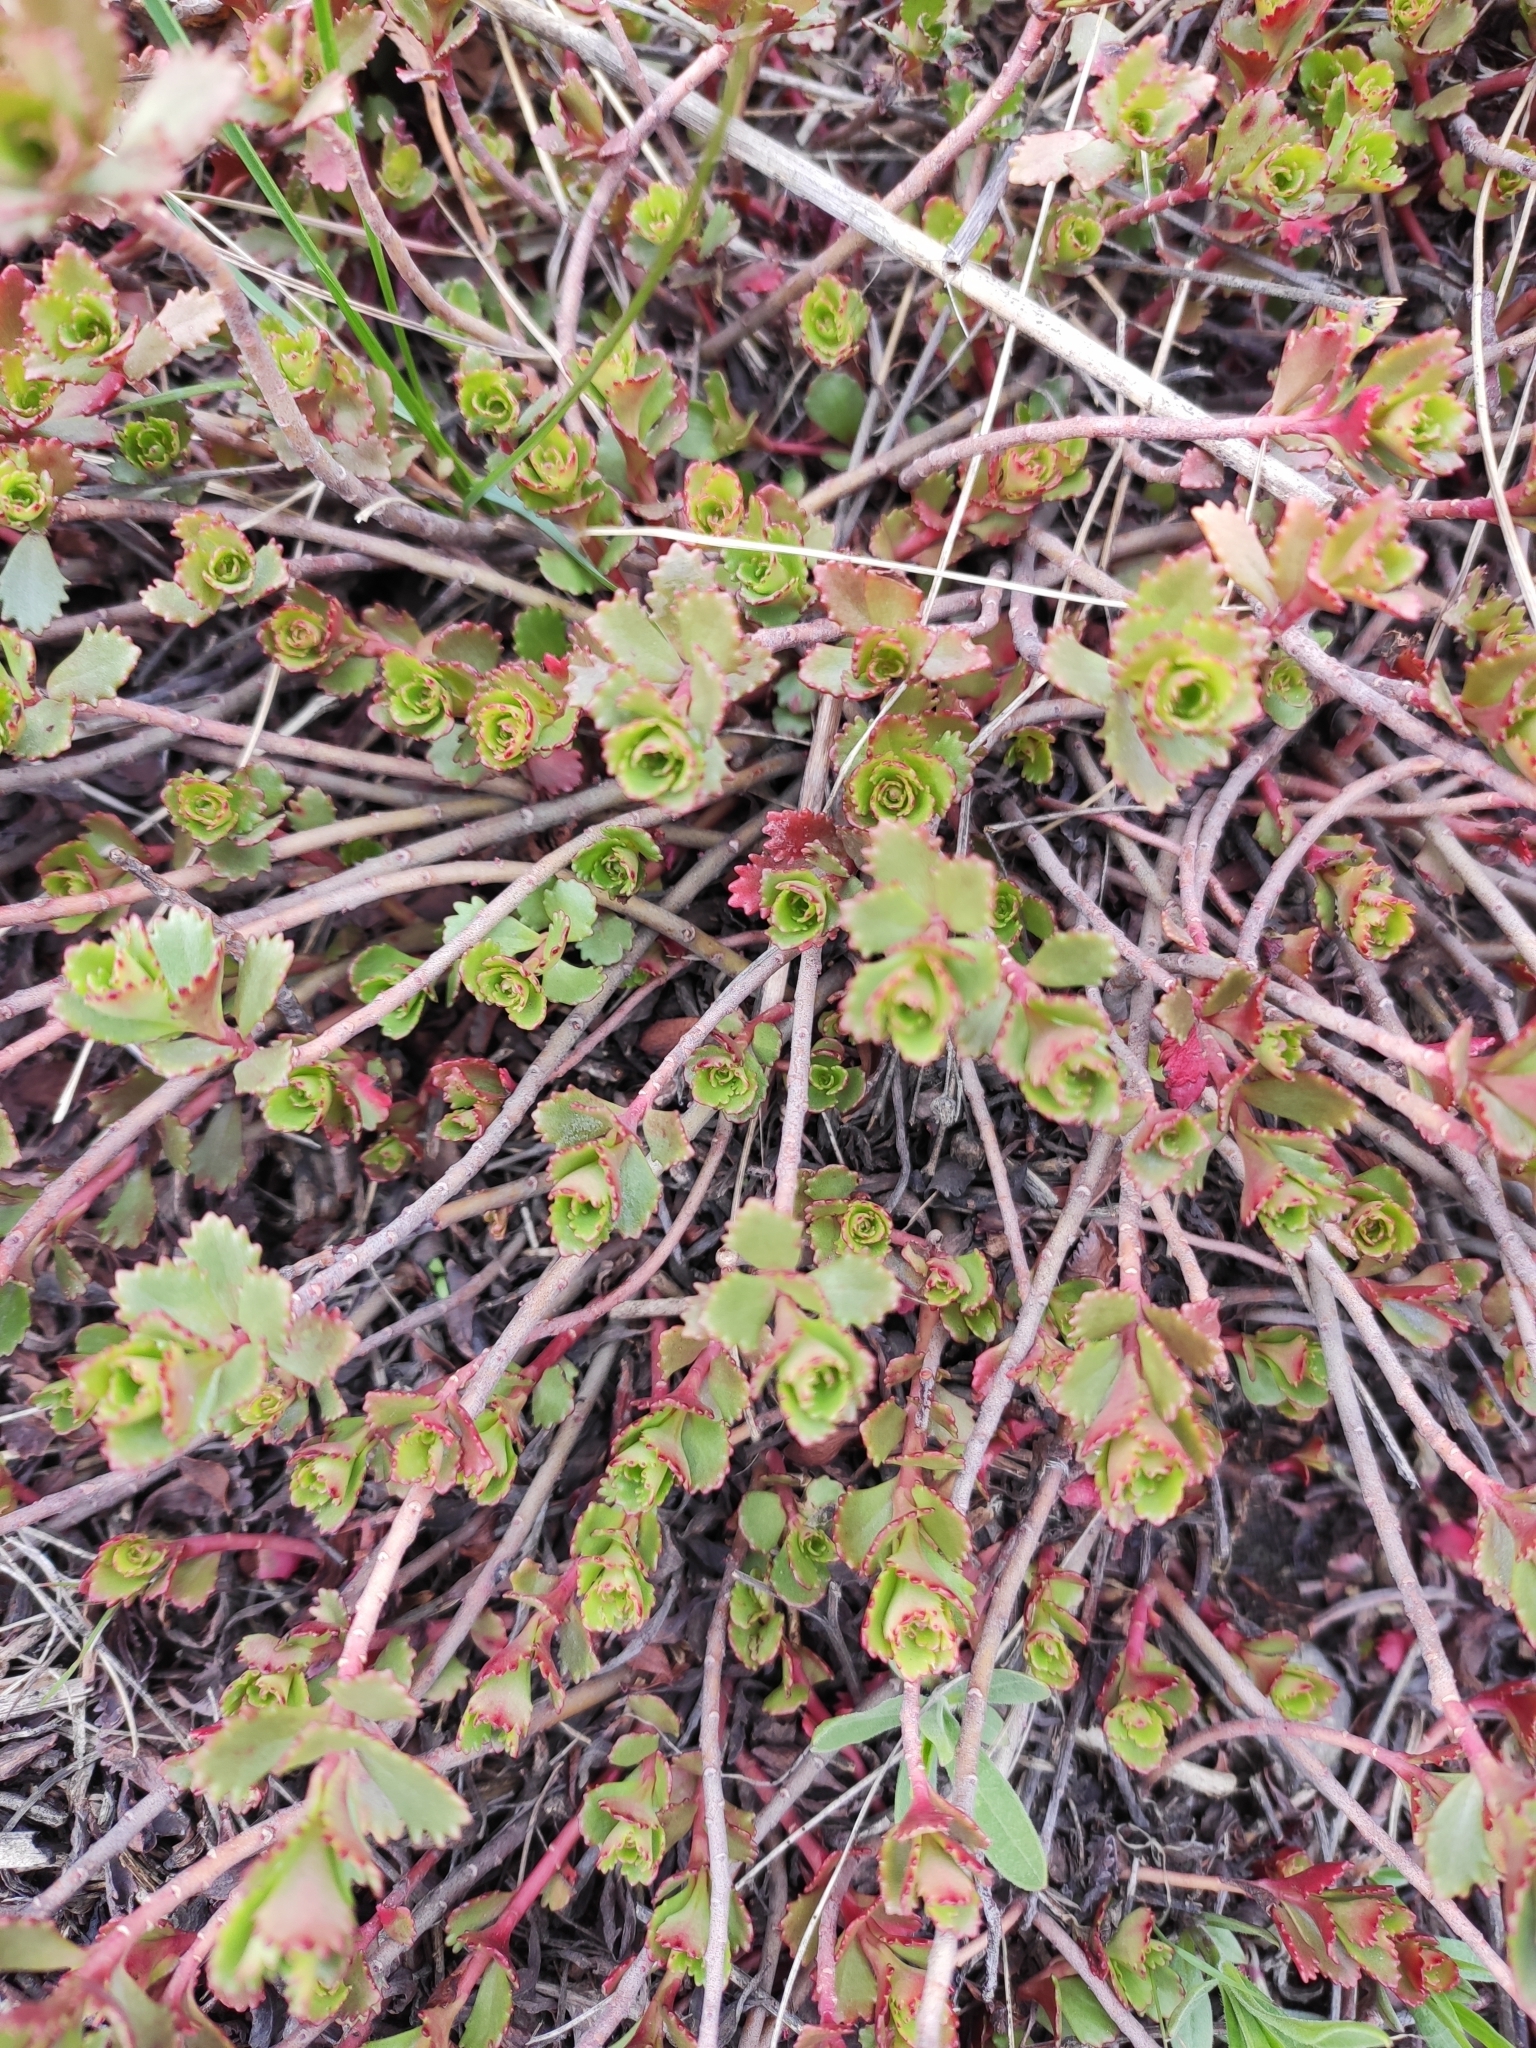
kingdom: Plantae
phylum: Tracheophyta
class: Magnoliopsida
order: Saxifragales
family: Crassulaceae
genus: Phedimus
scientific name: Phedimus spurius
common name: Caucasian stonecrop
